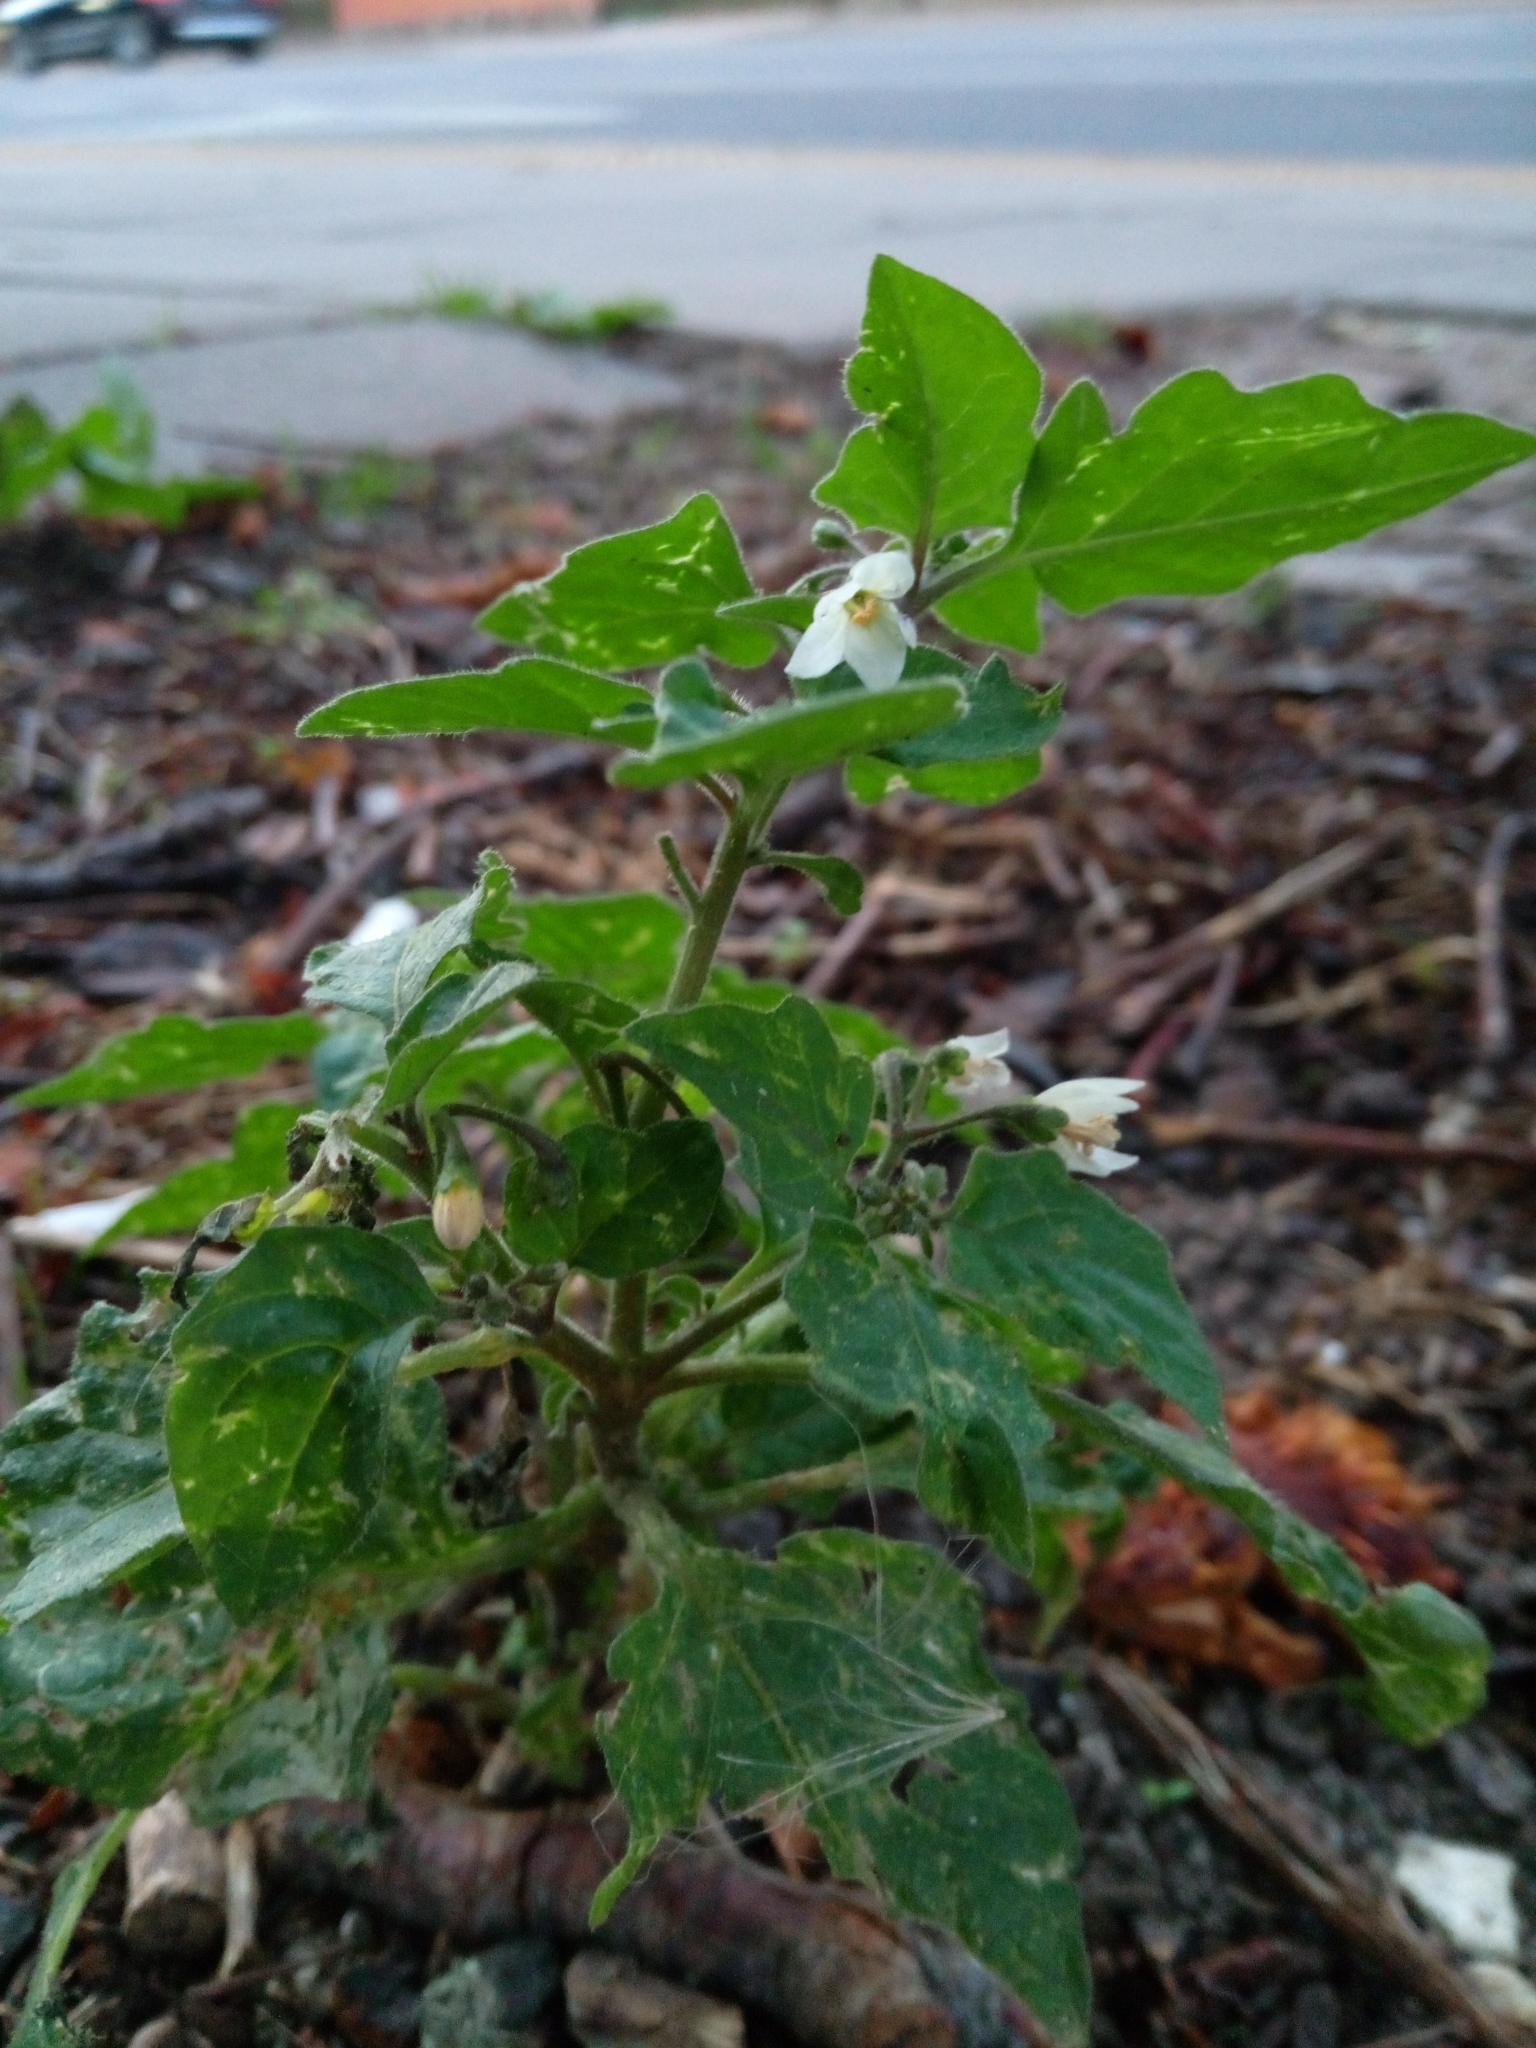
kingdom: Plantae
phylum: Tracheophyta
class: Magnoliopsida
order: Solanales
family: Solanaceae
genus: Solanum
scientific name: Solanum nigrum
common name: Black nightshade
